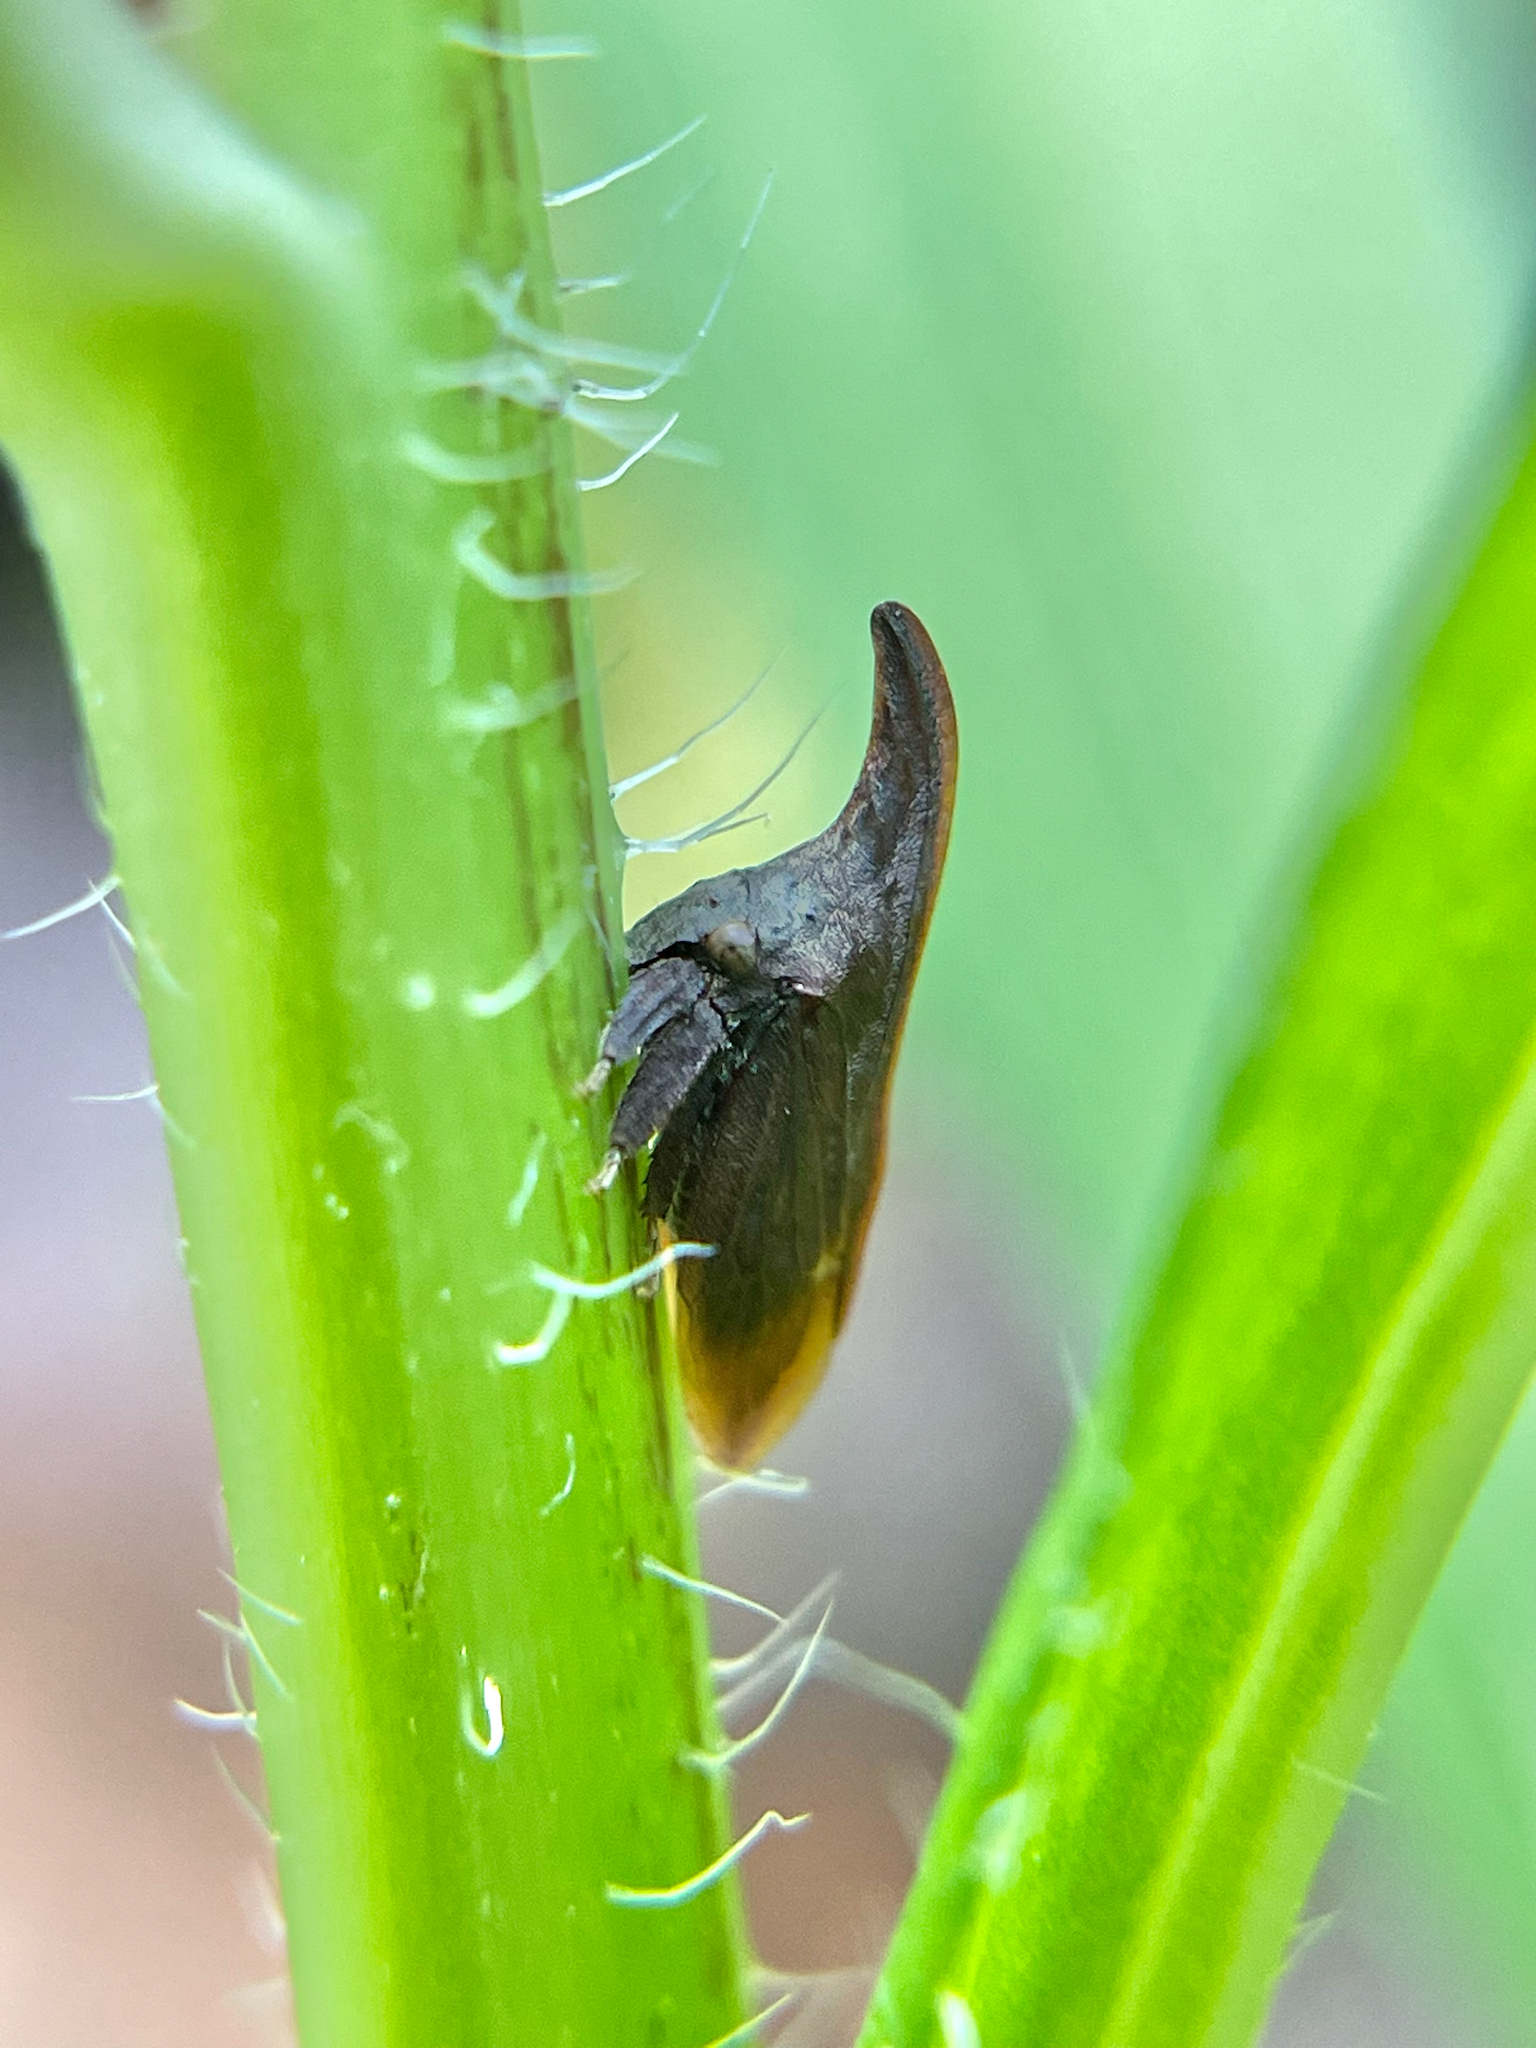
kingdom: Animalia
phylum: Arthropoda
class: Insecta
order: Hemiptera
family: Membracidae
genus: Enchenopa
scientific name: Enchenopa latipes
